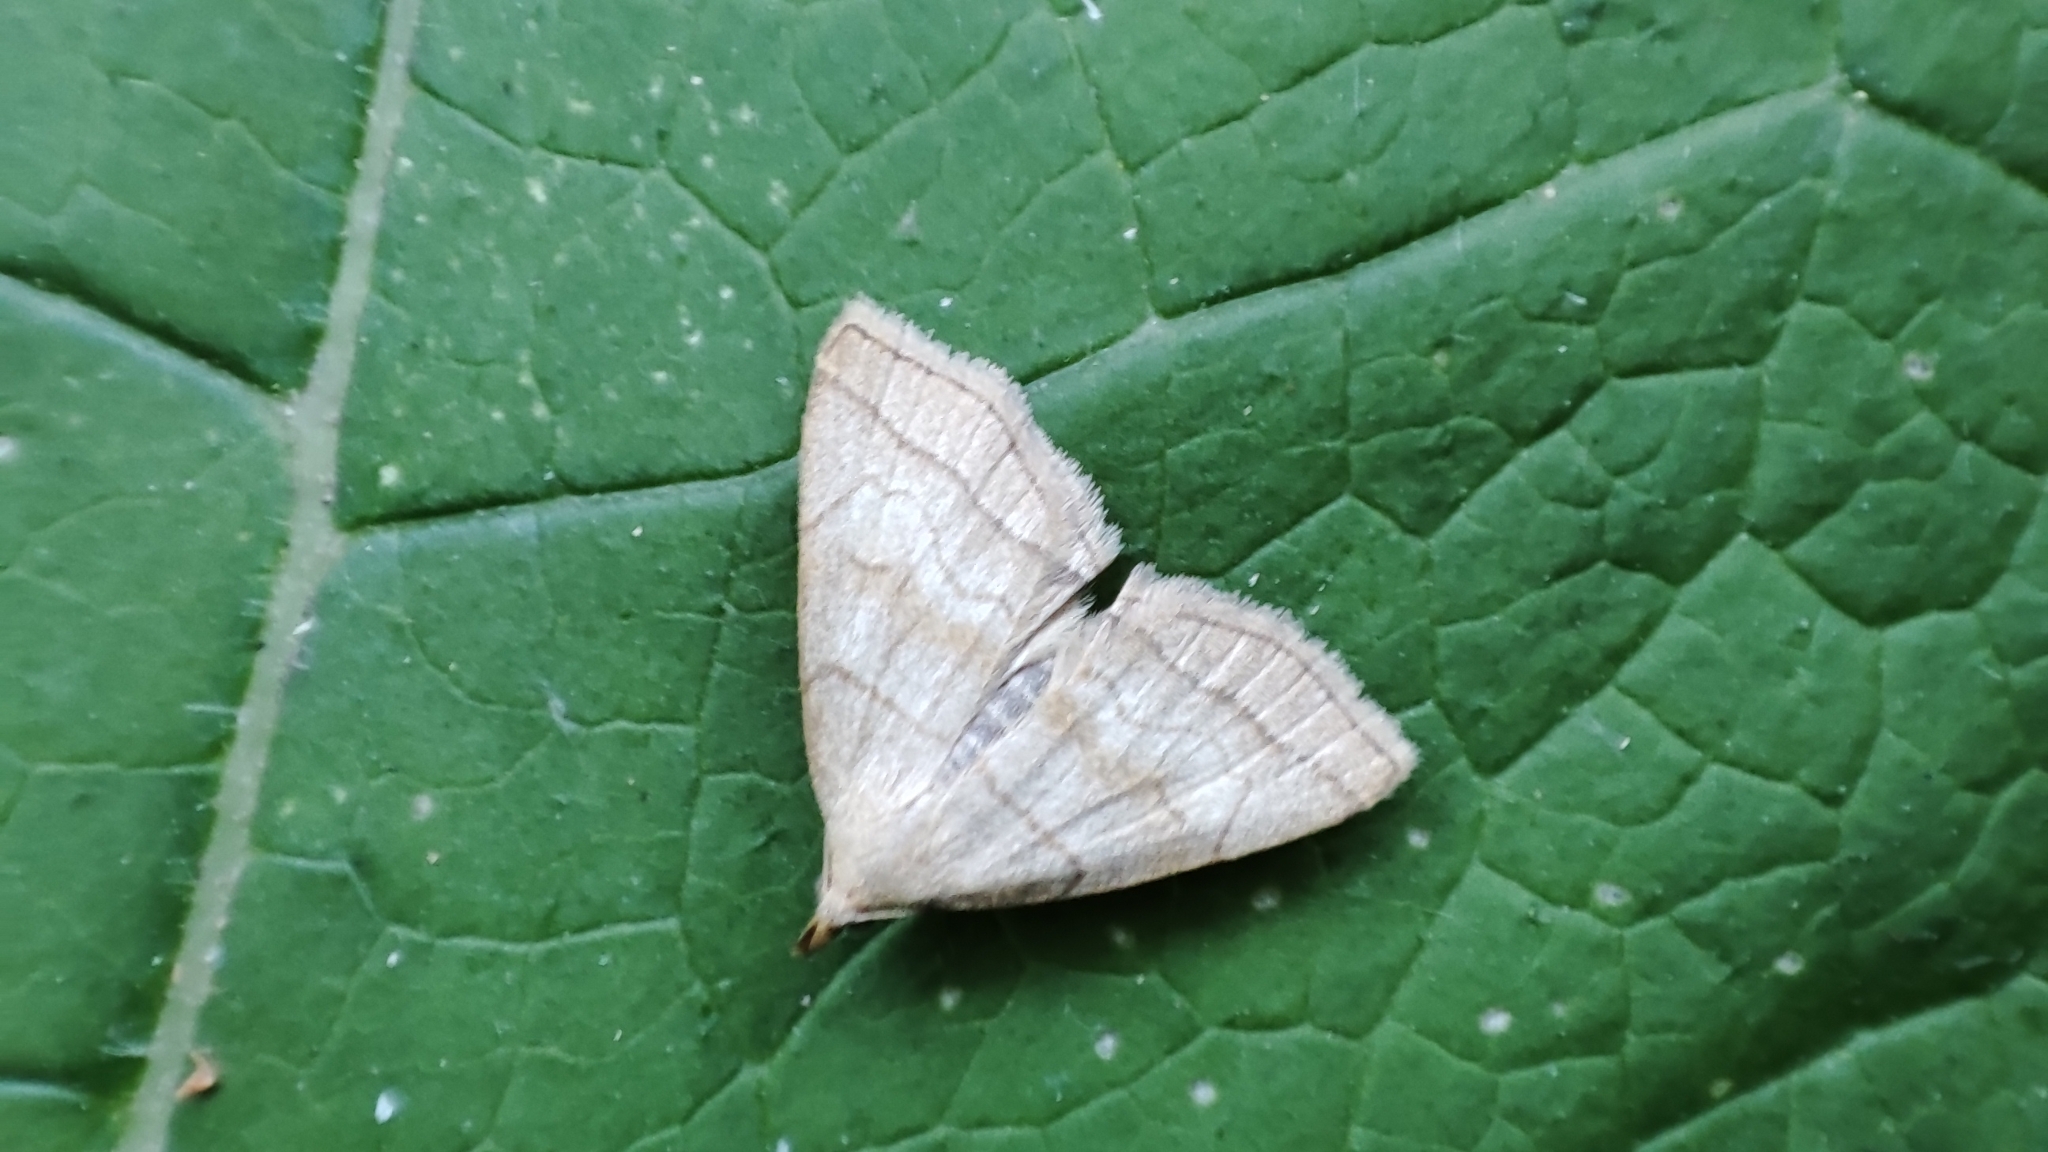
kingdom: Animalia
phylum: Arthropoda
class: Insecta
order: Lepidoptera
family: Erebidae
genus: Herminia
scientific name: Herminia tarsicrinalis
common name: Shaded fan-foot
